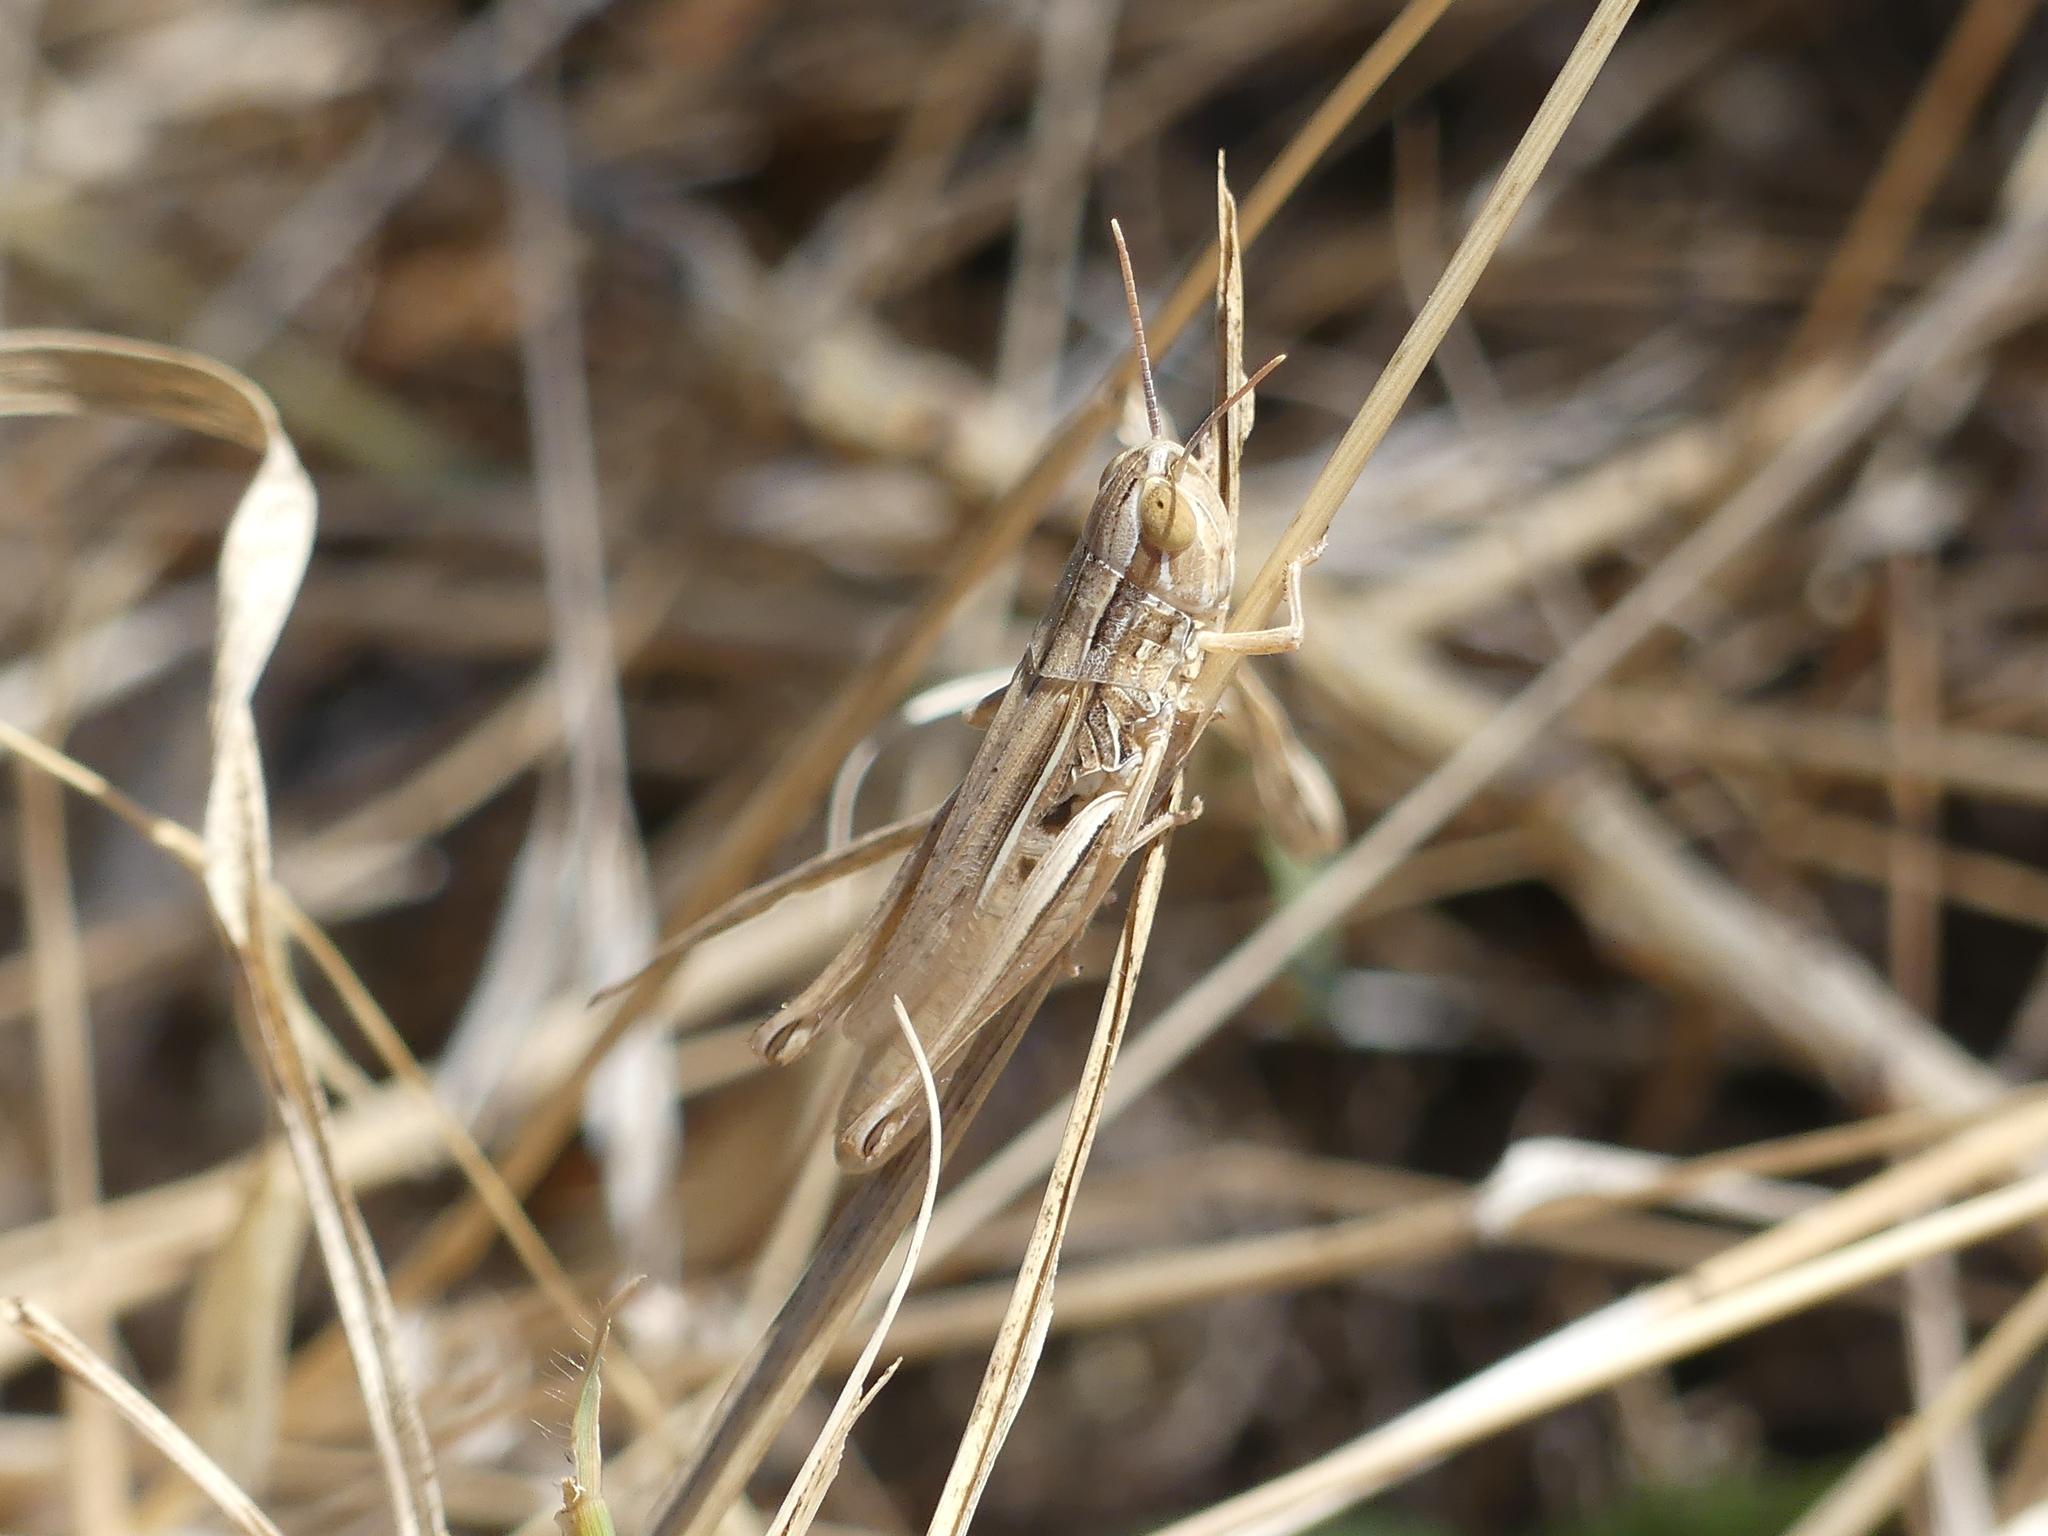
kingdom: Animalia
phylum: Arthropoda
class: Insecta
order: Orthoptera
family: Acrididae
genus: Euchorthippus
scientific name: Euchorthippus elegantulus
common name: Elegant straw grasshopper
